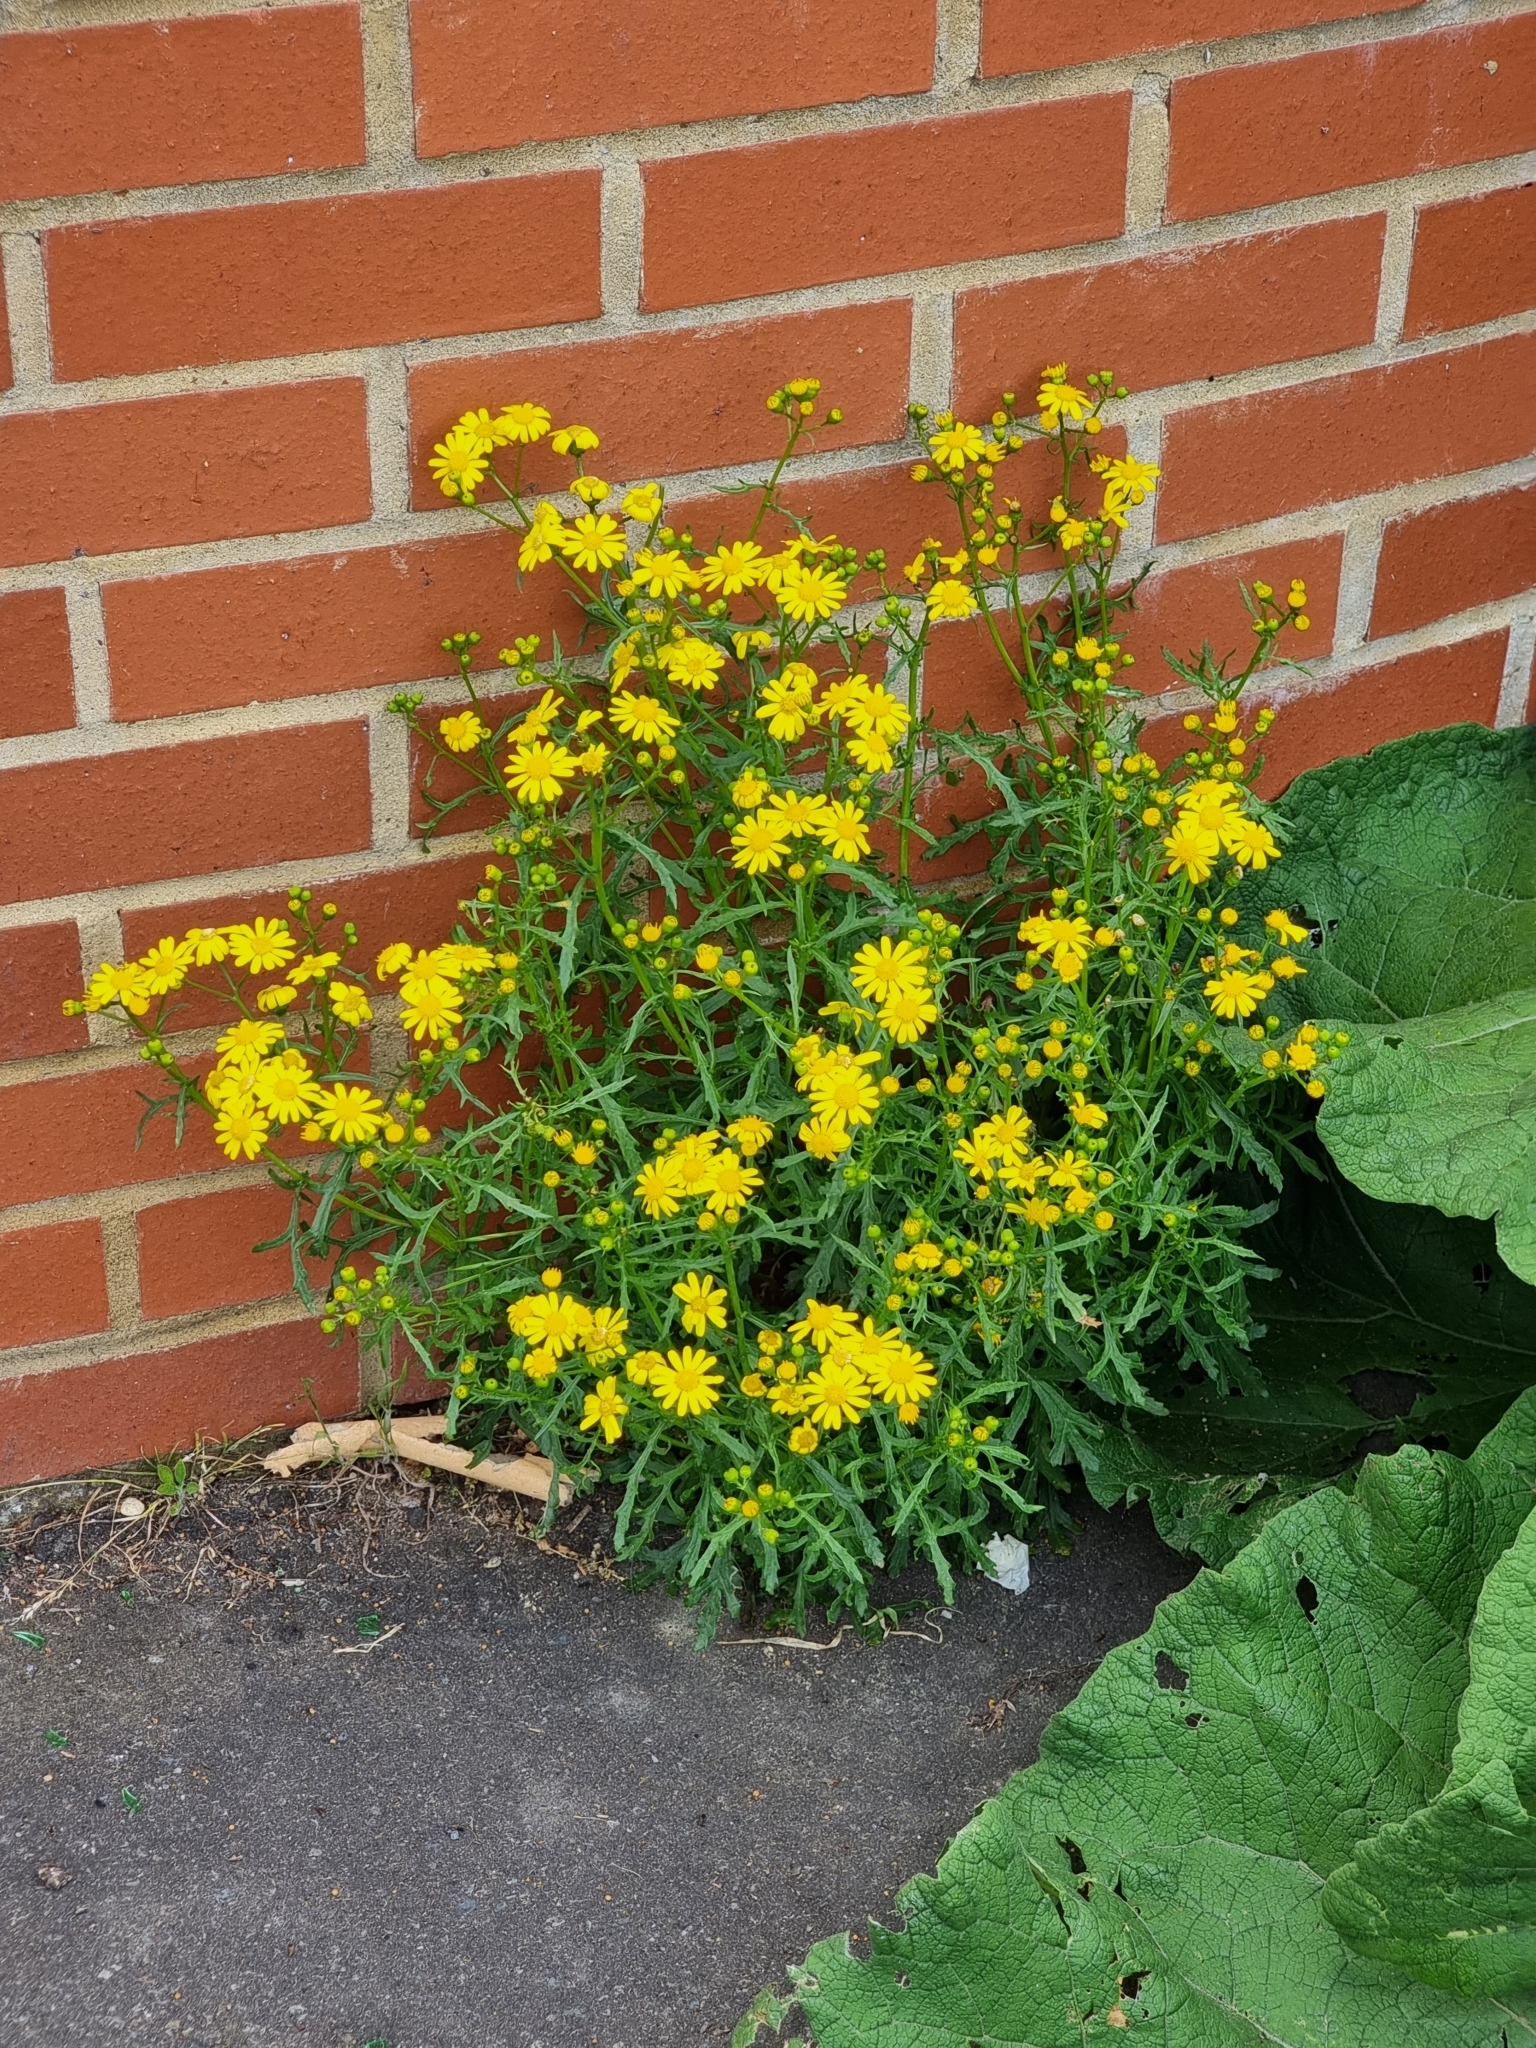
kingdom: Plantae
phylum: Tracheophyta
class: Magnoliopsida
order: Asterales
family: Asteraceae
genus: Senecio
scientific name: Senecio squalidus
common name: Oxford ragwort
